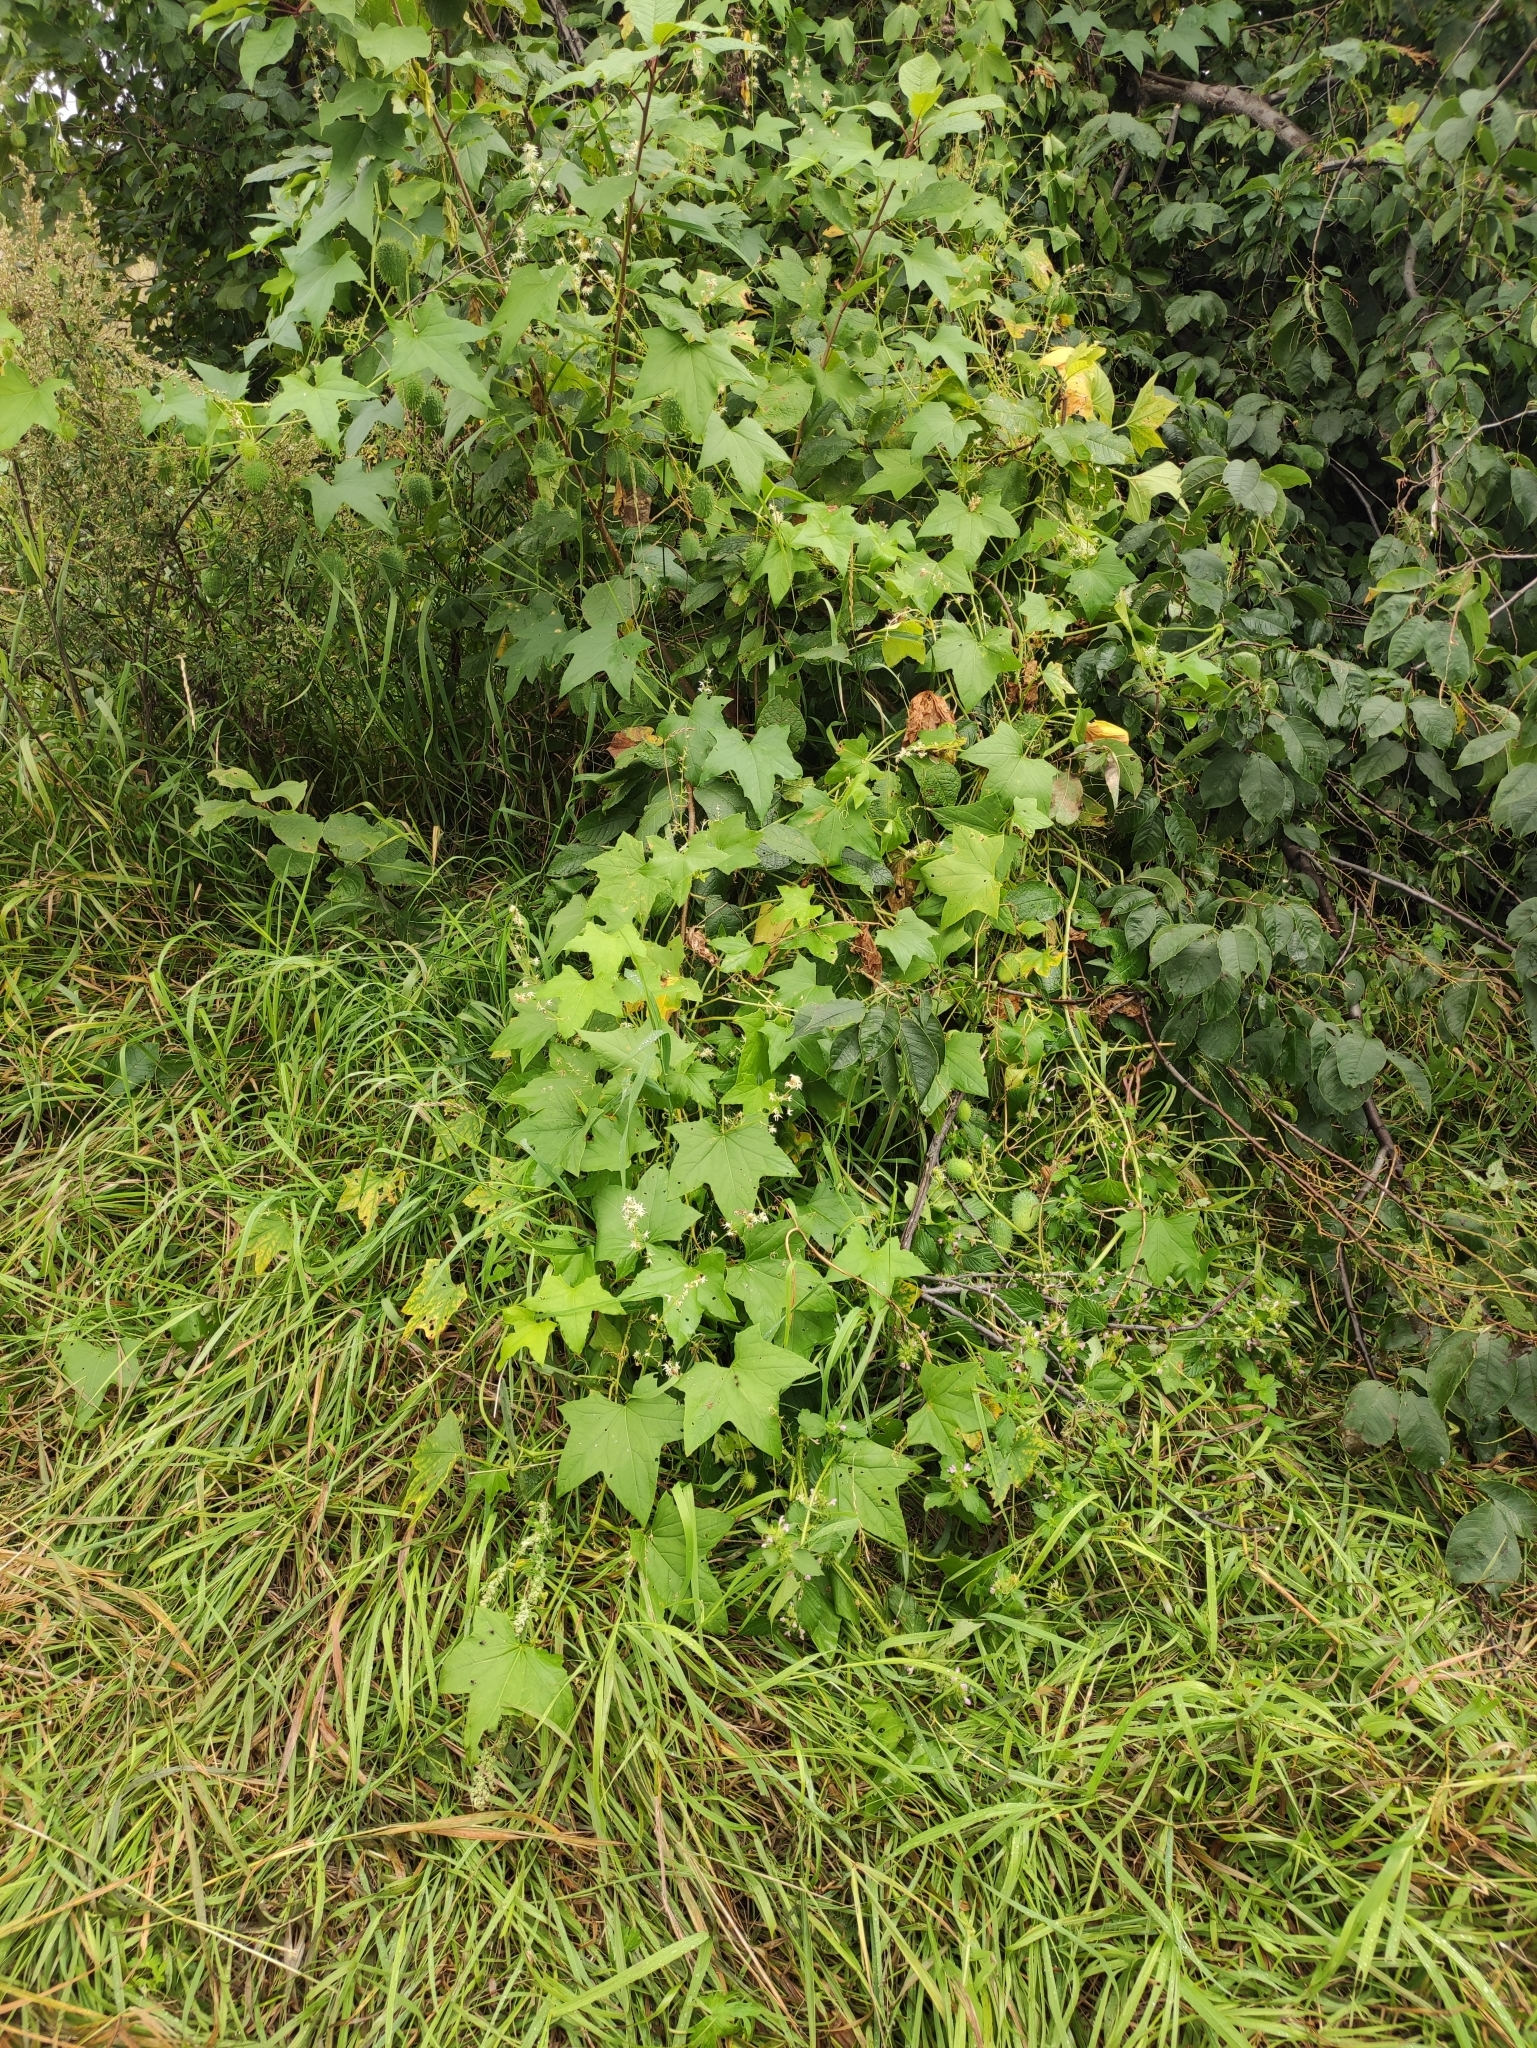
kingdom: Plantae
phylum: Tracheophyta
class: Magnoliopsida
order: Cucurbitales
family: Cucurbitaceae
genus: Echinocystis
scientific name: Echinocystis lobata
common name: Wild cucumber
